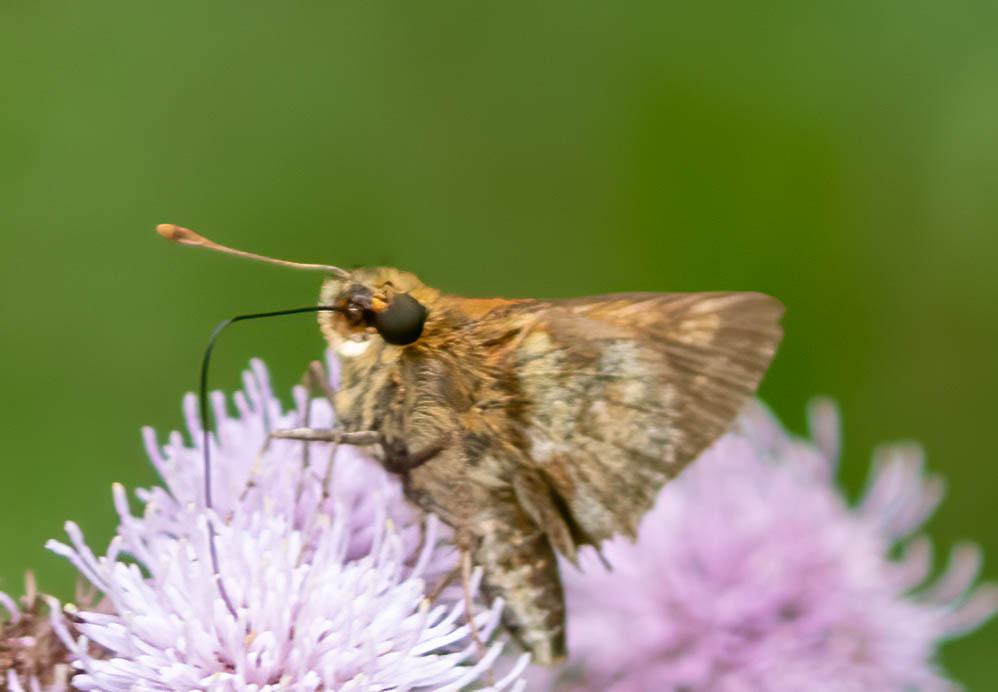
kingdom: Animalia
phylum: Arthropoda
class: Insecta
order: Lepidoptera
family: Hesperiidae
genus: Polites
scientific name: Polites coras
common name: Peck's skipper
